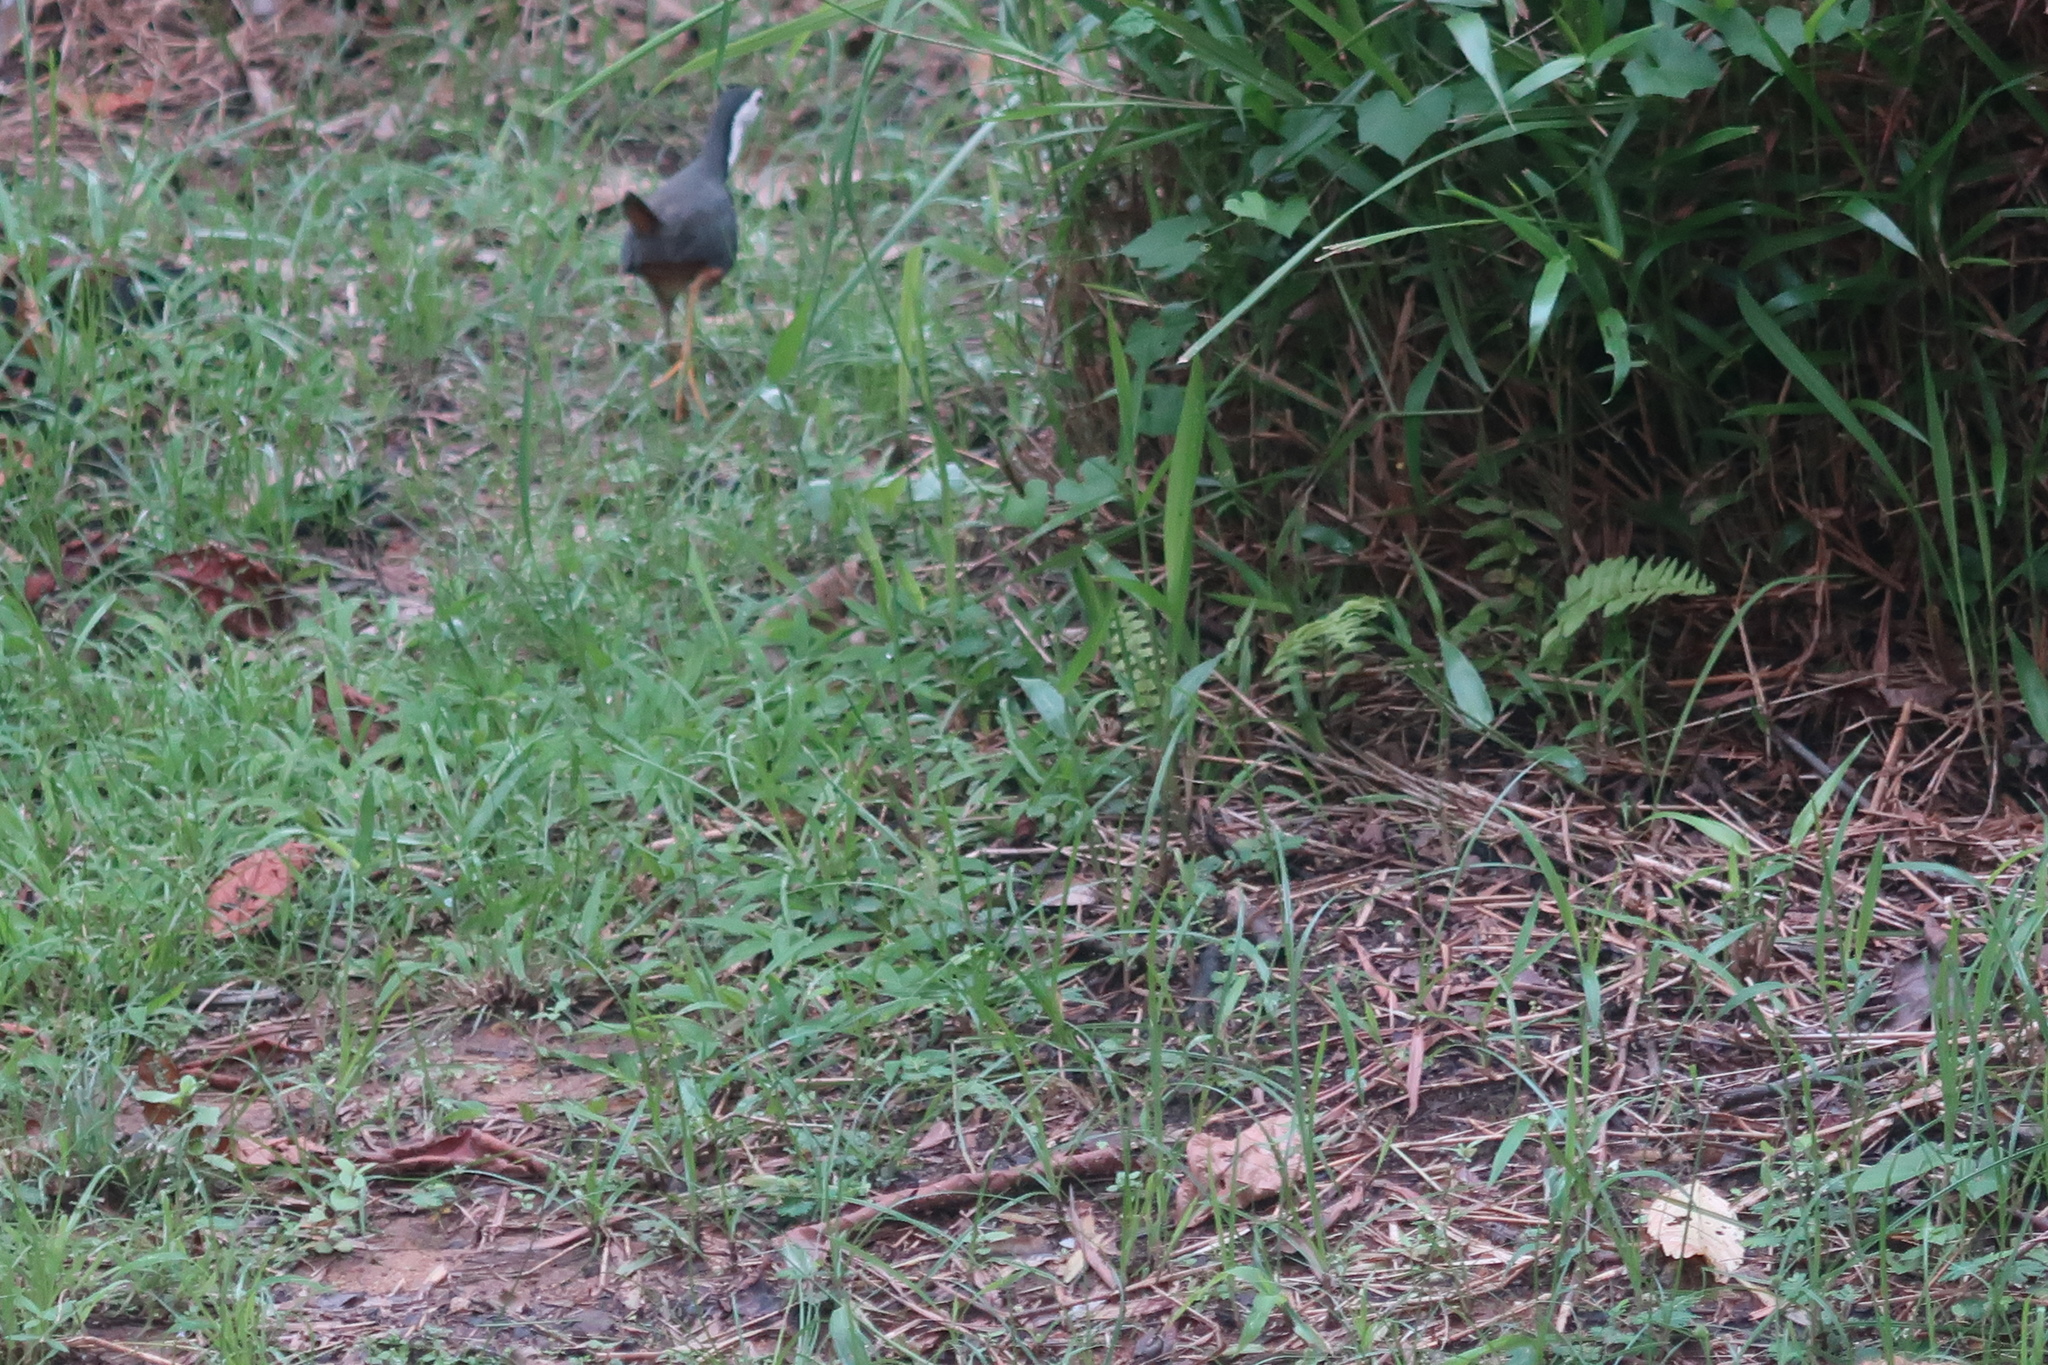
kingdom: Animalia
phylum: Chordata
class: Aves
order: Gruiformes
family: Rallidae
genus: Amaurornis
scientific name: Amaurornis phoenicurus
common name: White-breasted waterhen
